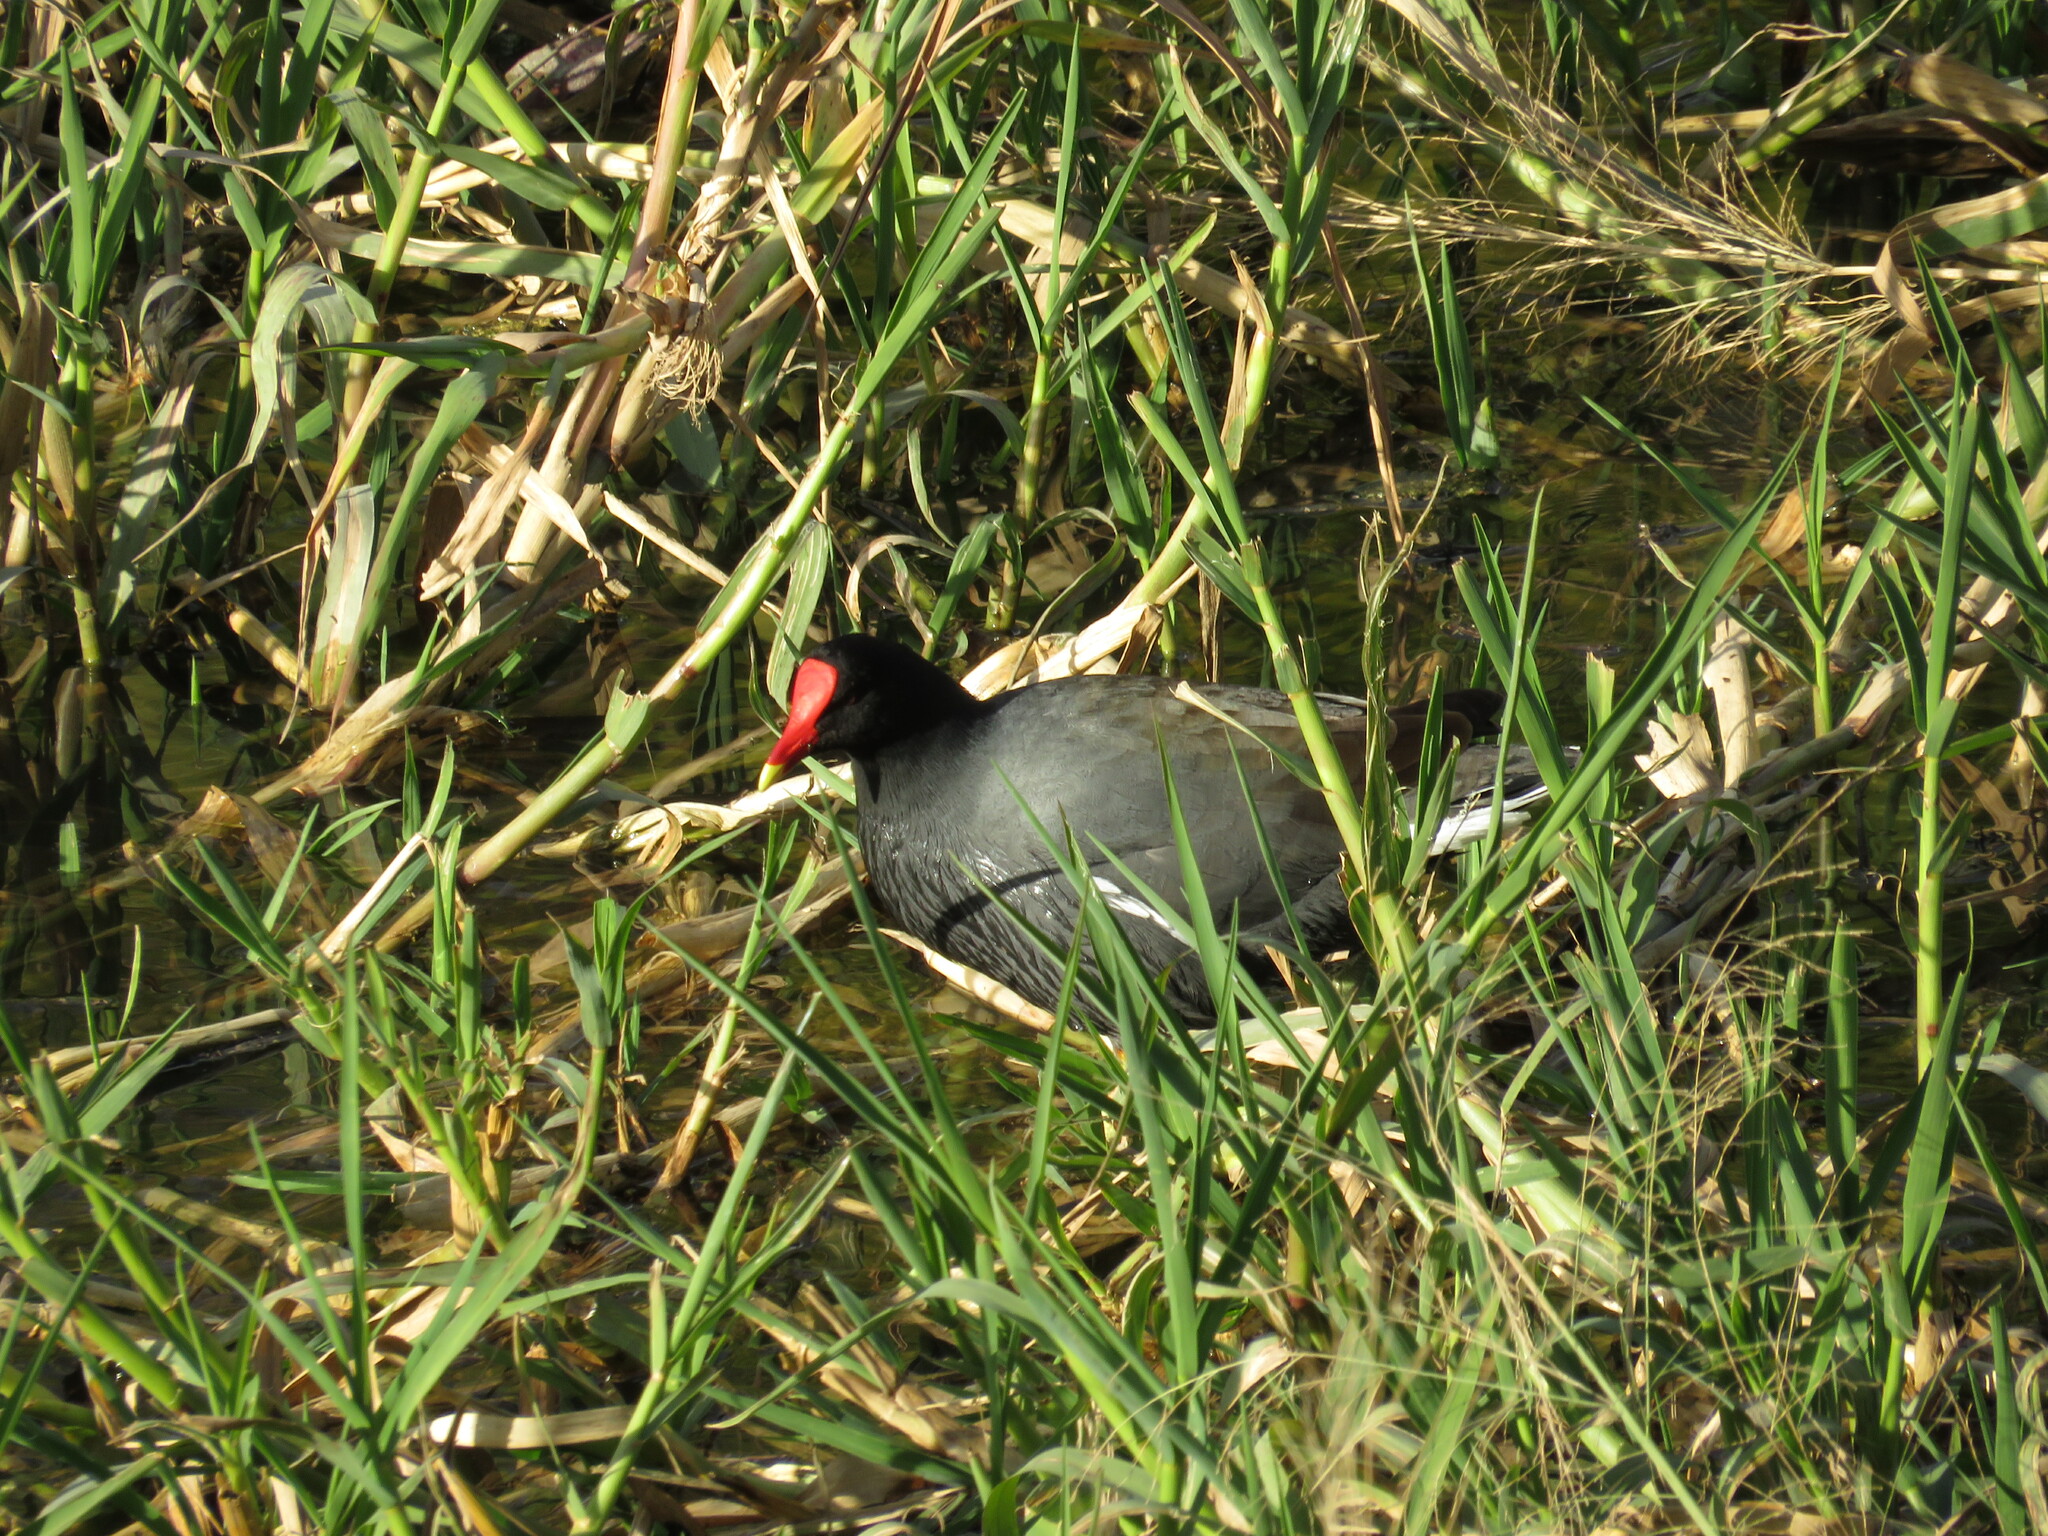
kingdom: Animalia
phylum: Chordata
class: Aves
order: Gruiformes
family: Rallidae
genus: Gallinula
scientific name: Gallinula chloropus
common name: Common moorhen
